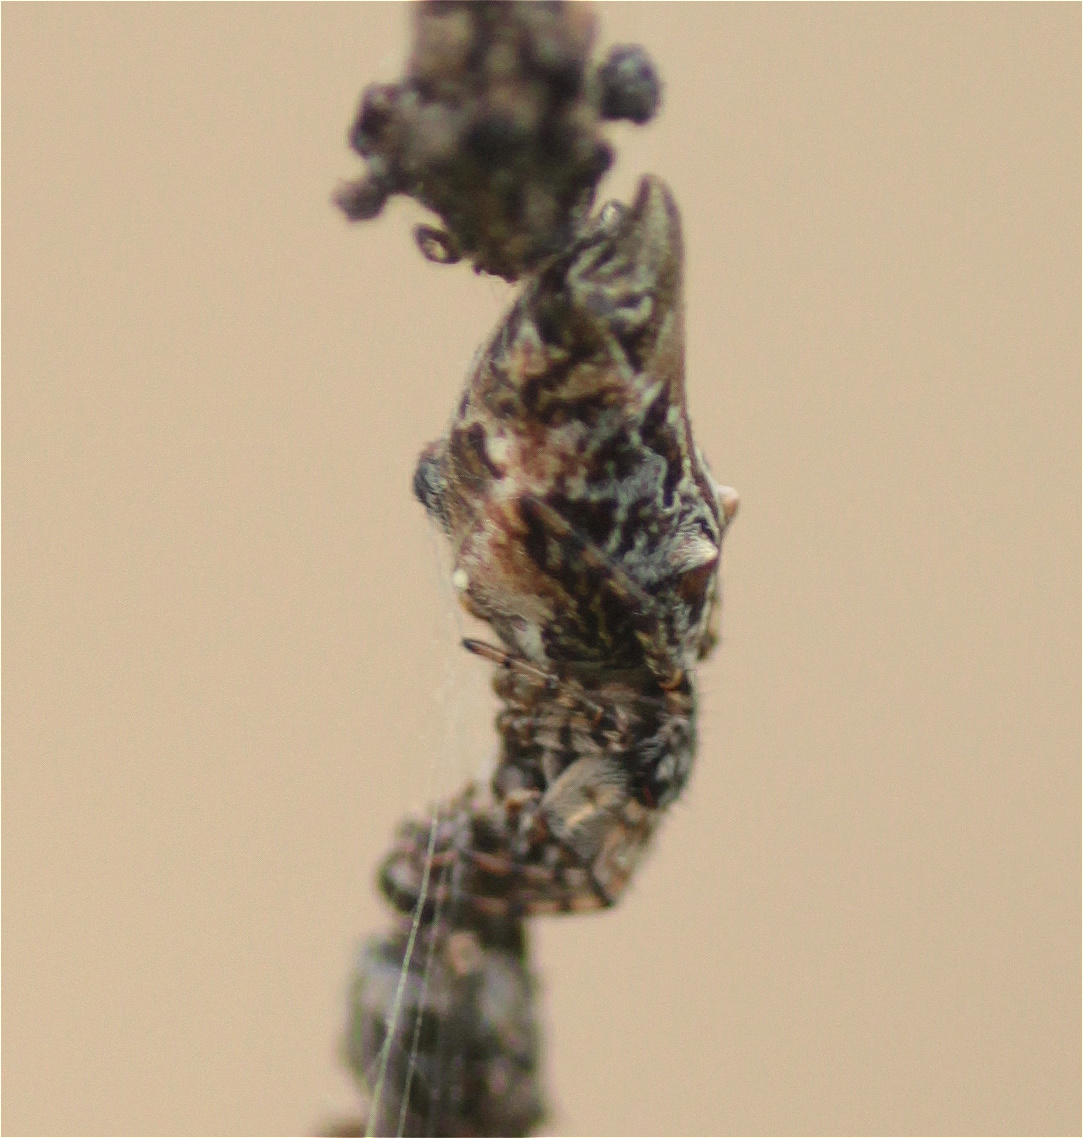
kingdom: Animalia
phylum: Arthropoda
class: Arachnida
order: Araneae
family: Araneidae
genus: Cyclosa
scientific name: Cyclosa bifurcata
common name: Orb weavers
